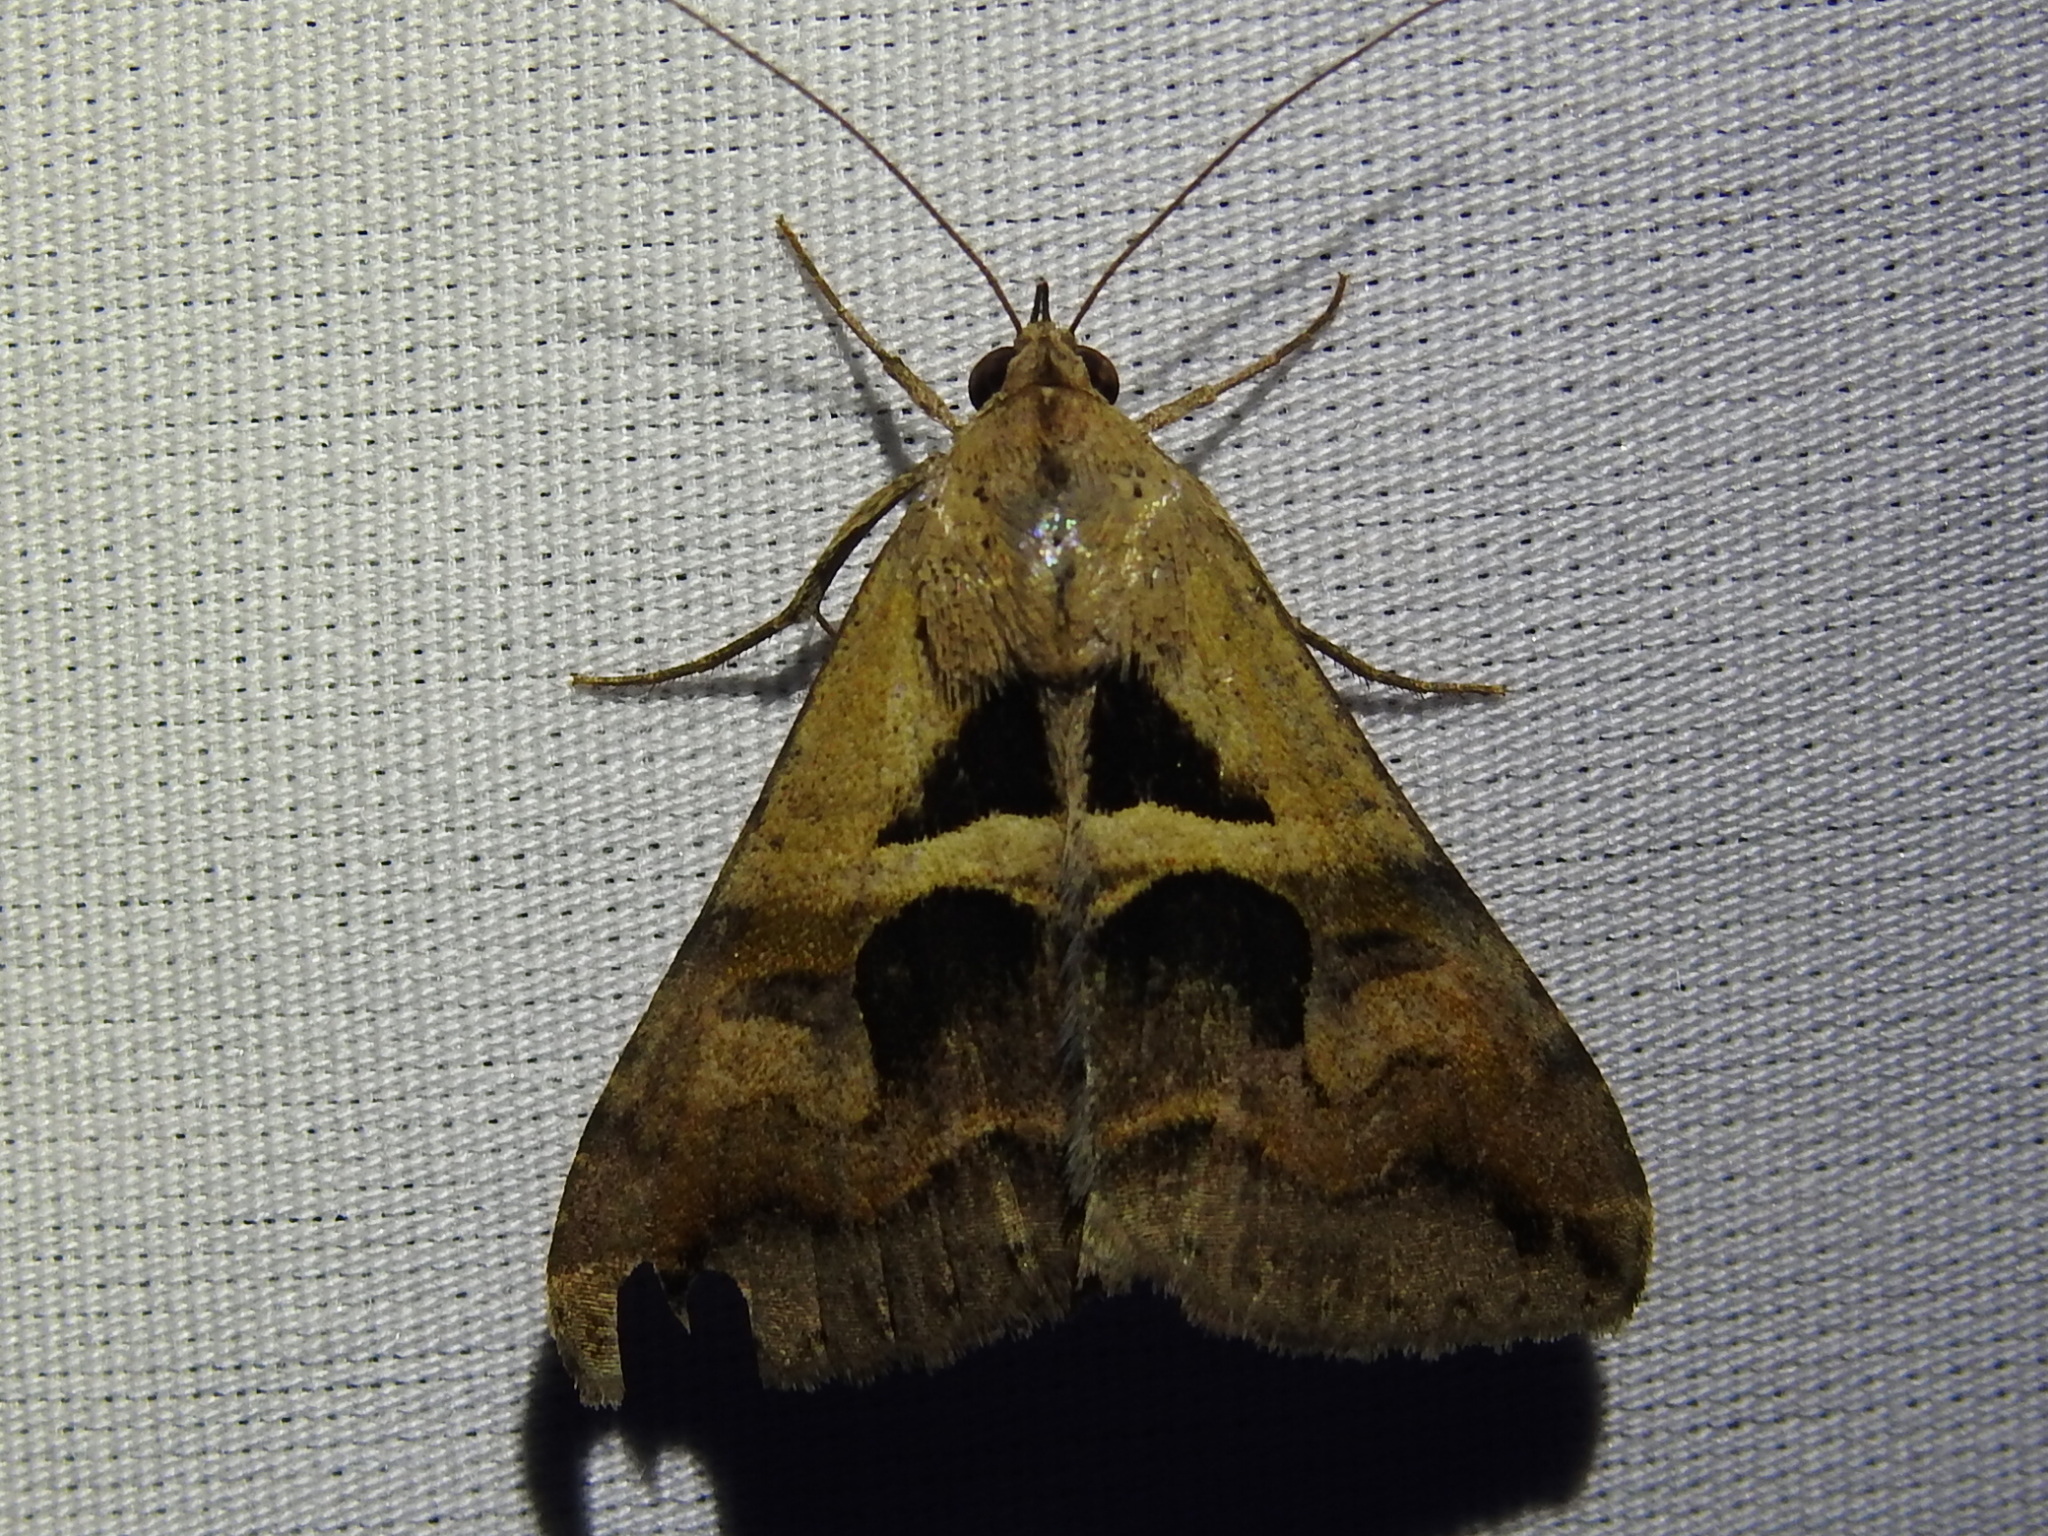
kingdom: Animalia
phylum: Arthropoda
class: Insecta
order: Lepidoptera
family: Erebidae
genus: Melipotis
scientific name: Melipotis cellaris
